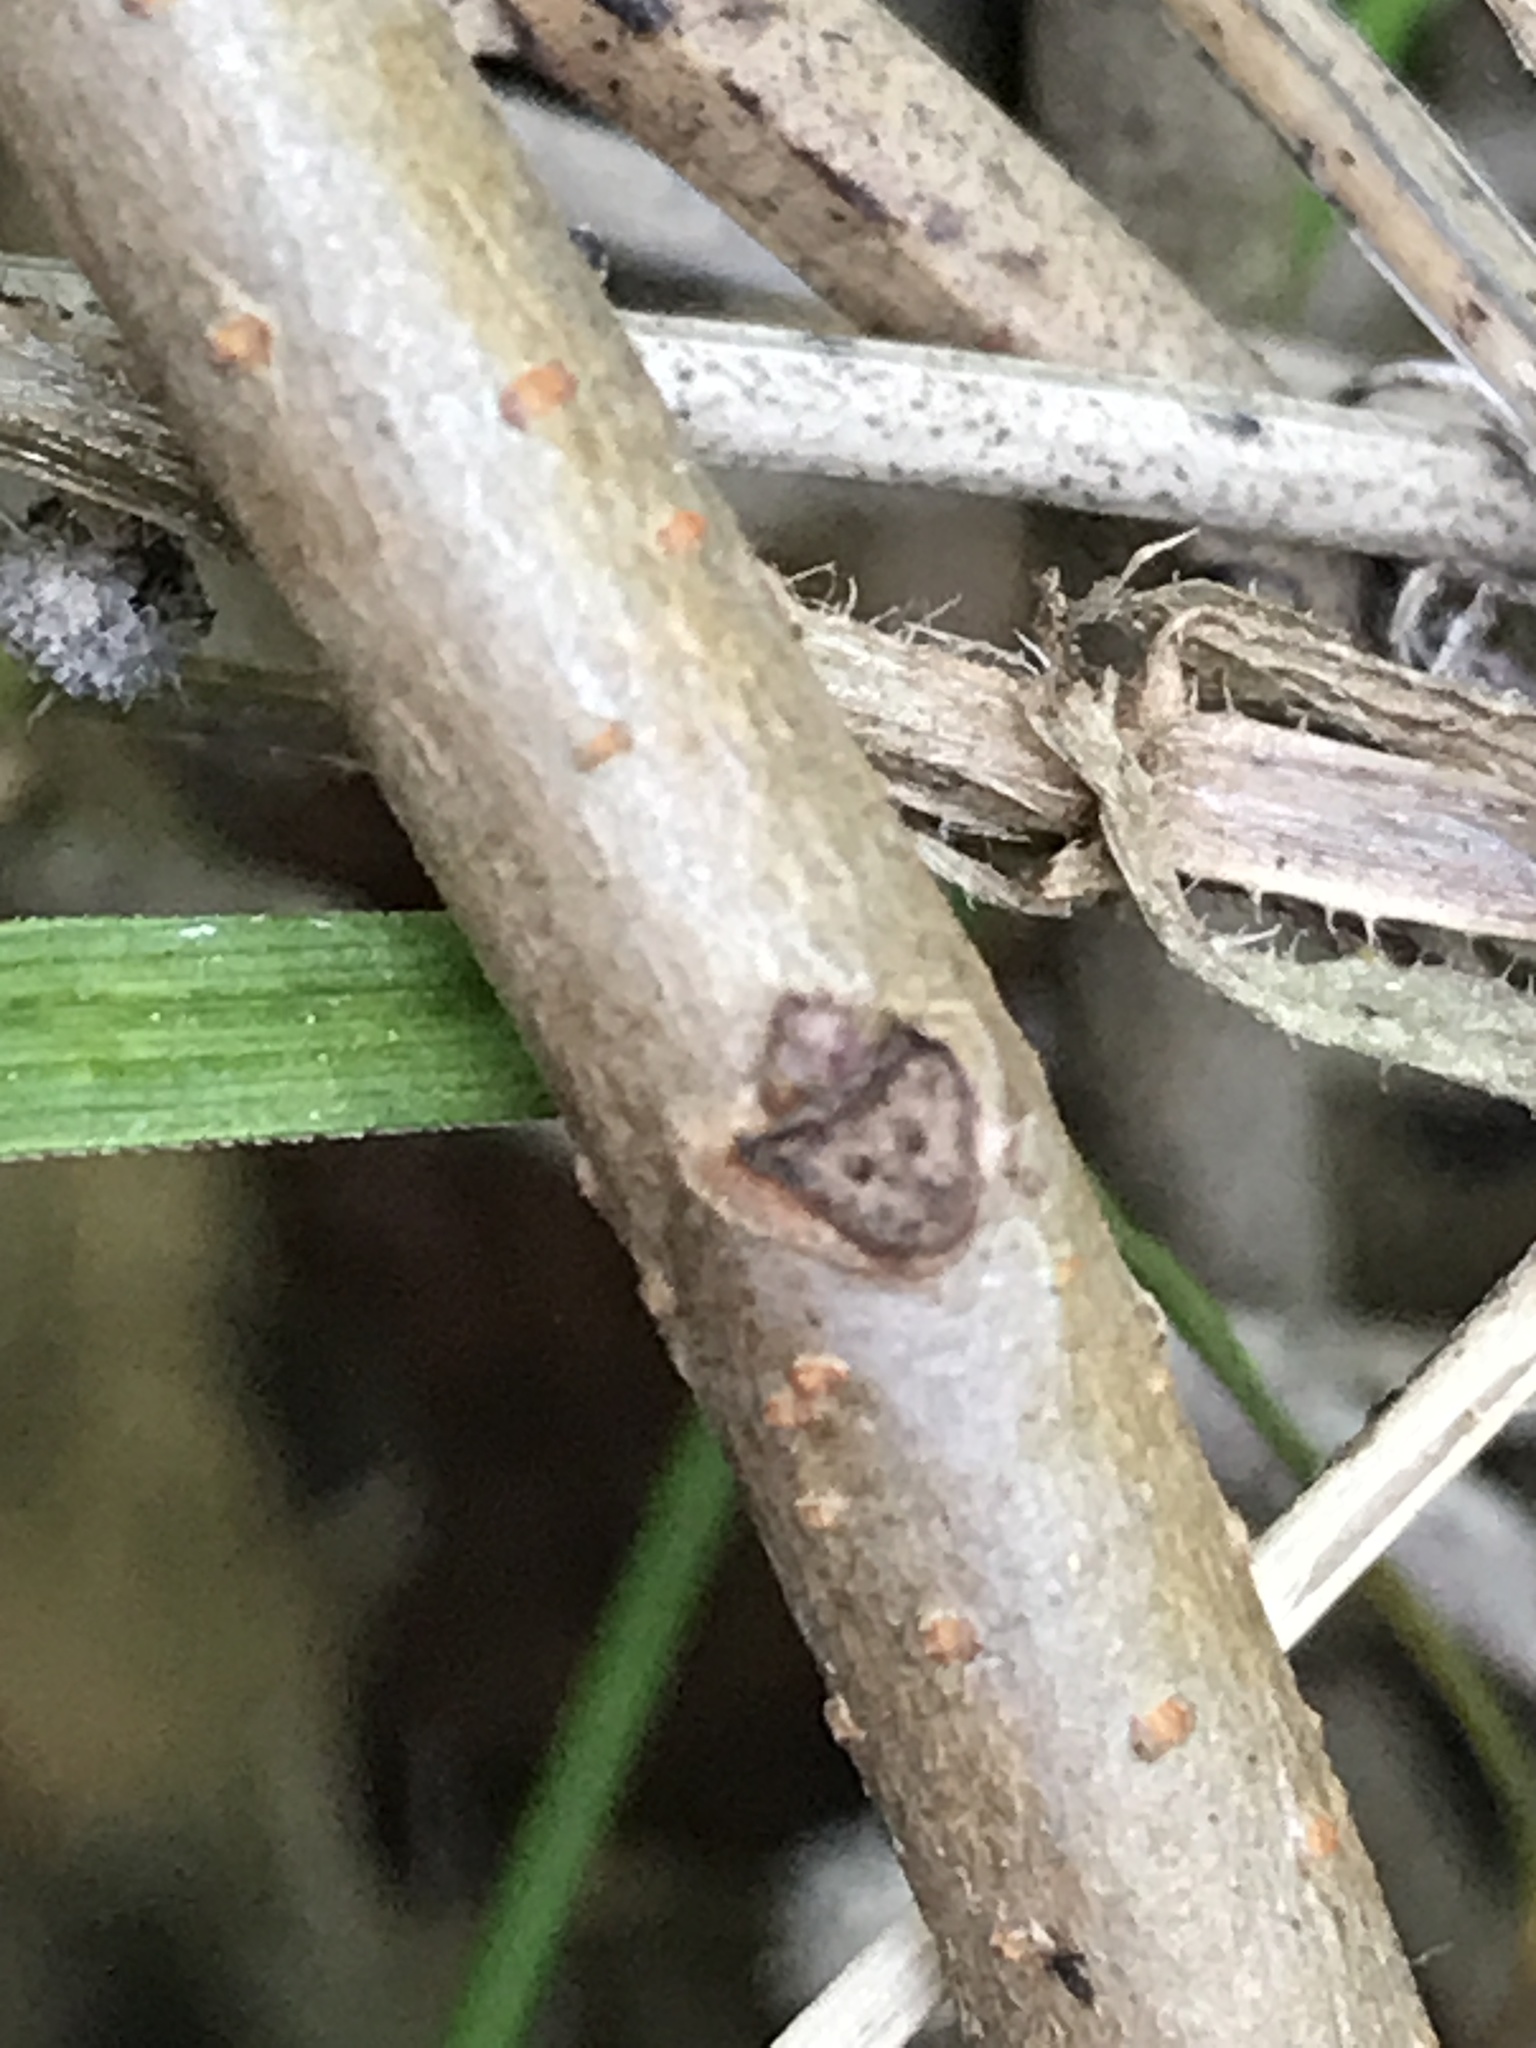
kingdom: Plantae
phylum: Tracheophyta
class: Magnoliopsida
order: Sapindales
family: Anacardiaceae
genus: Pistacia
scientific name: Pistacia chinensis
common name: Chinese pistache
